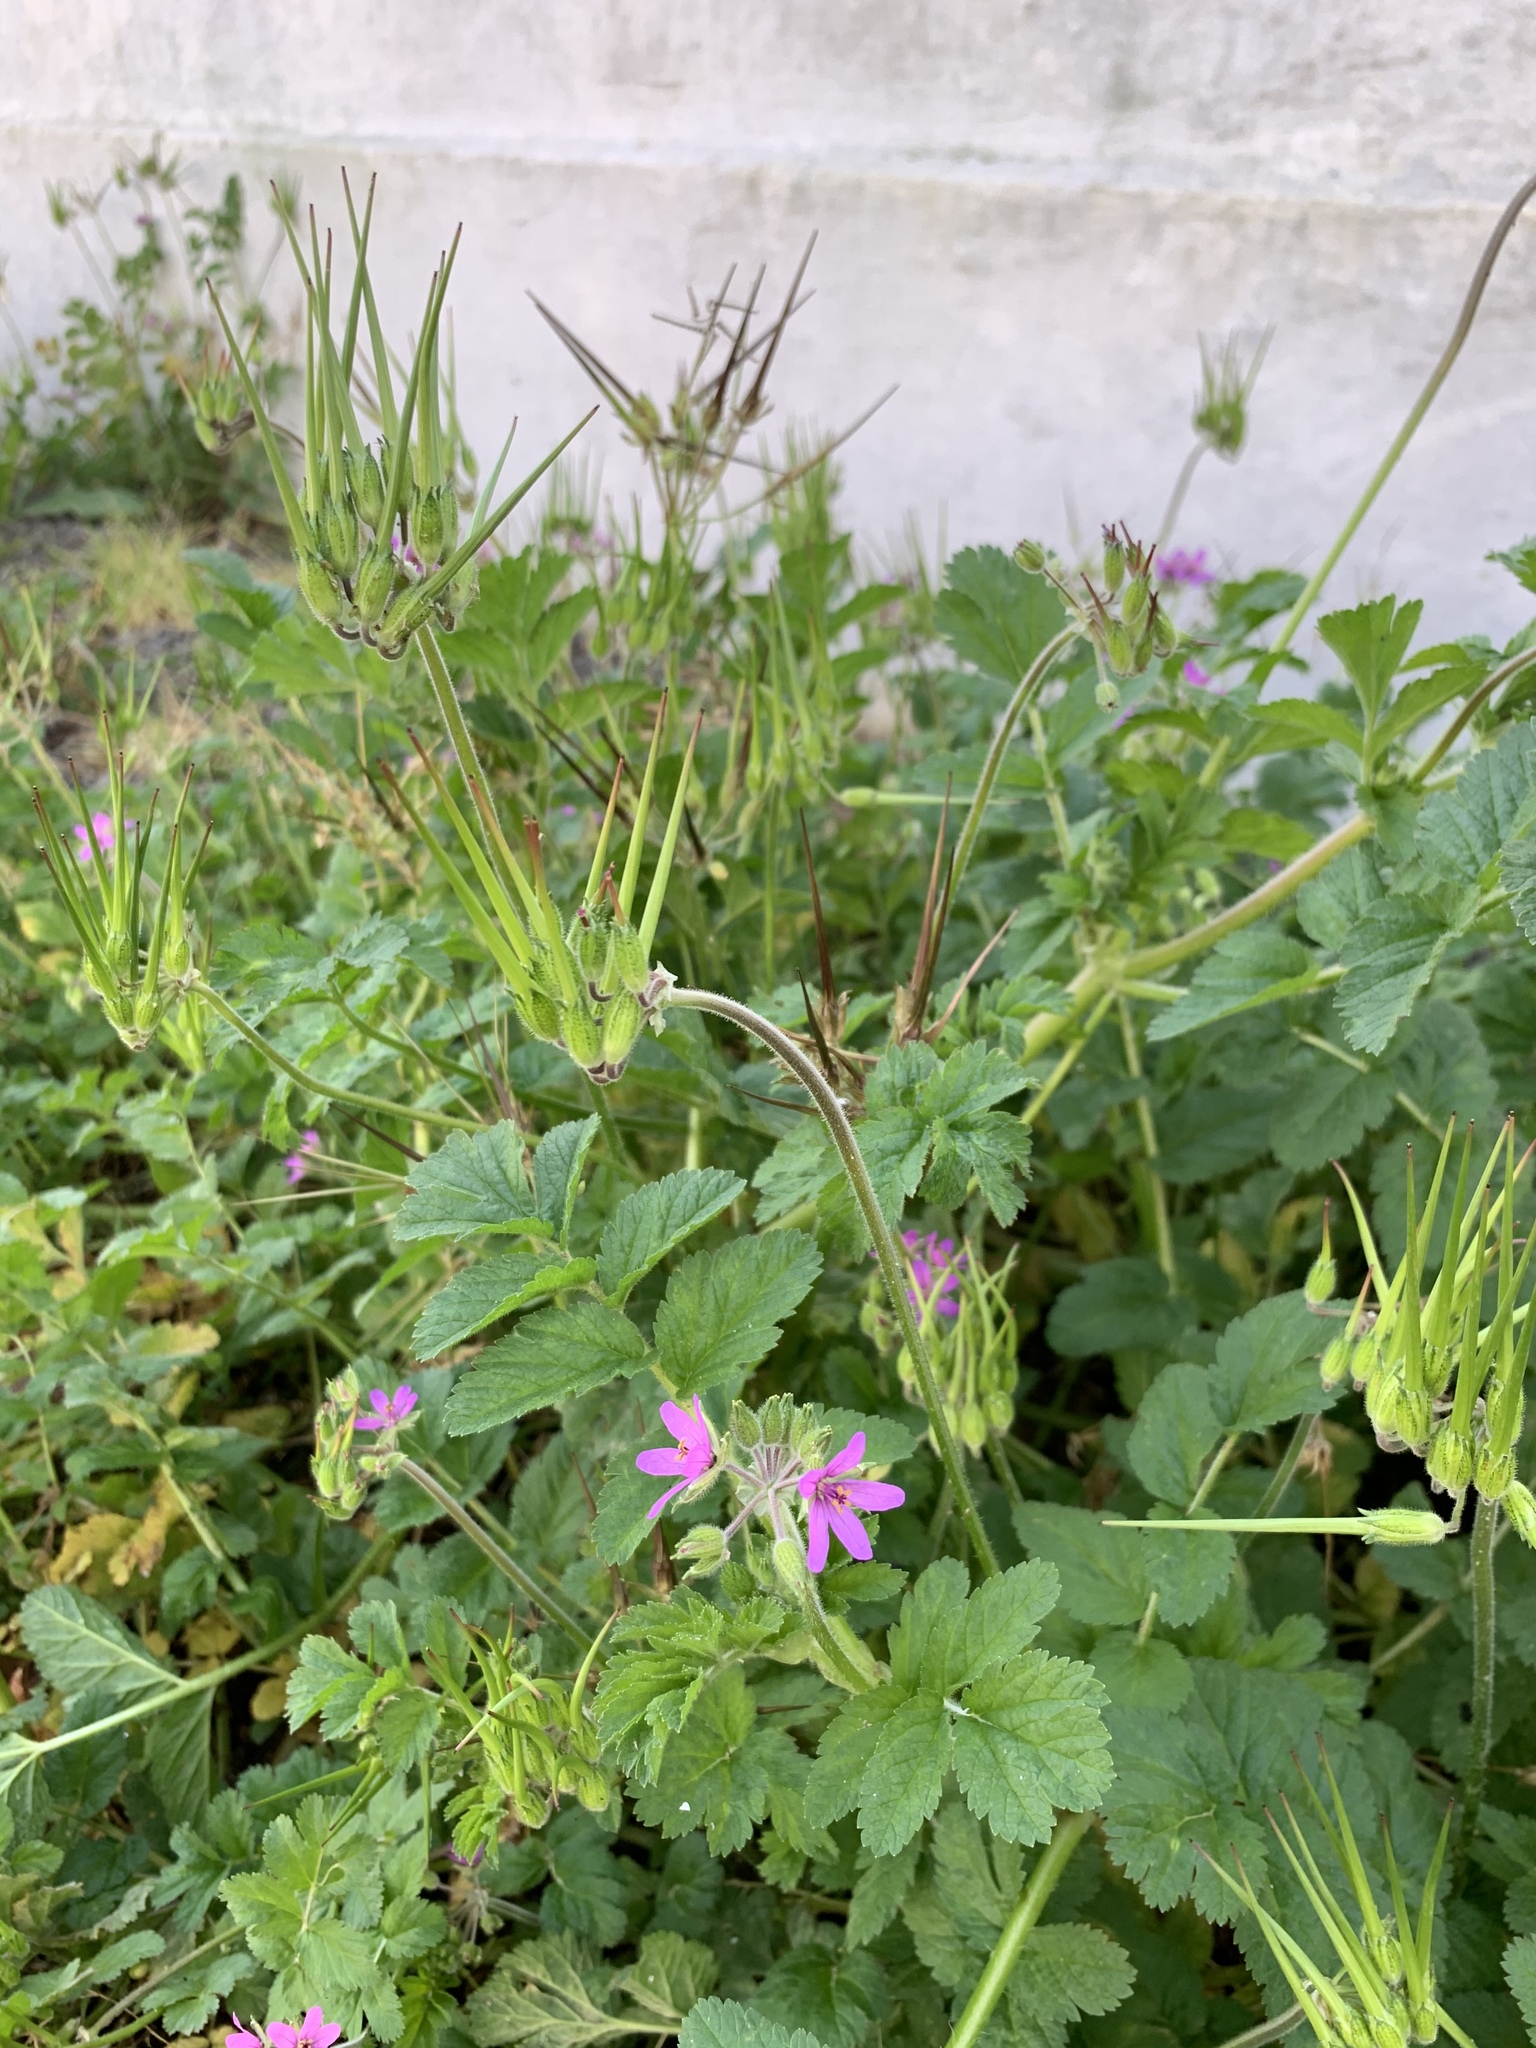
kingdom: Plantae
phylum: Tracheophyta
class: Magnoliopsida
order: Geraniales
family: Geraniaceae
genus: Erodium
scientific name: Erodium moschatum
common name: Musk stork's-bill
